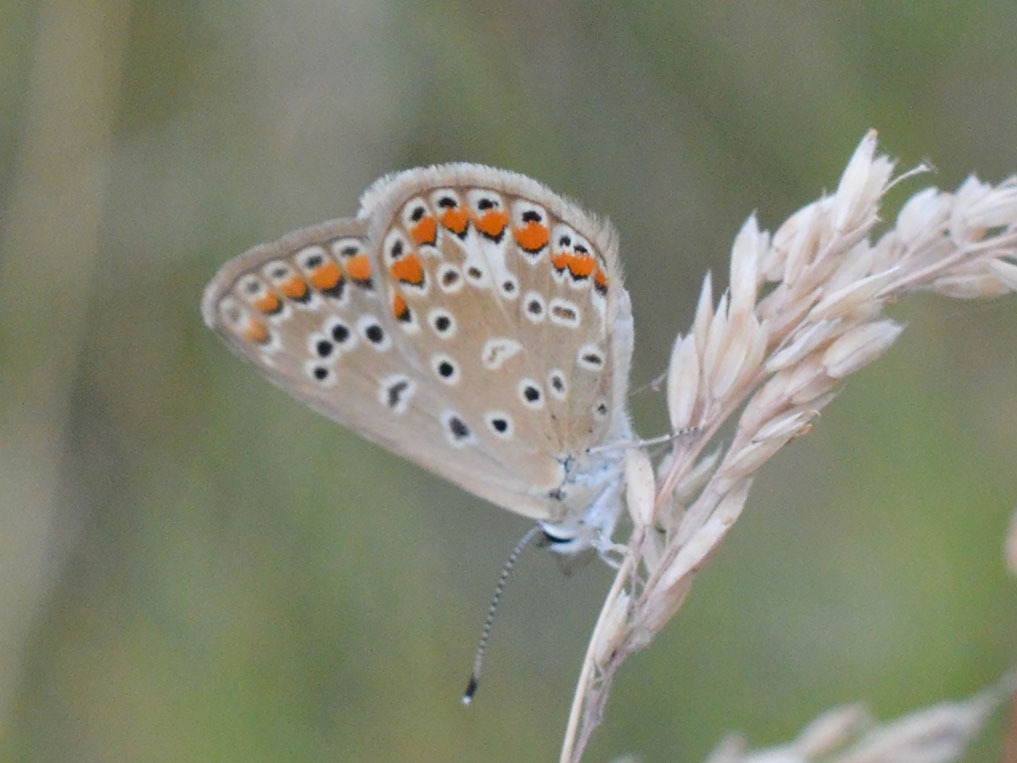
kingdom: Animalia
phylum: Arthropoda
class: Insecta
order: Lepidoptera
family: Lycaenidae
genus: Polyommatus
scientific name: Polyommatus icarus
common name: Common blue
